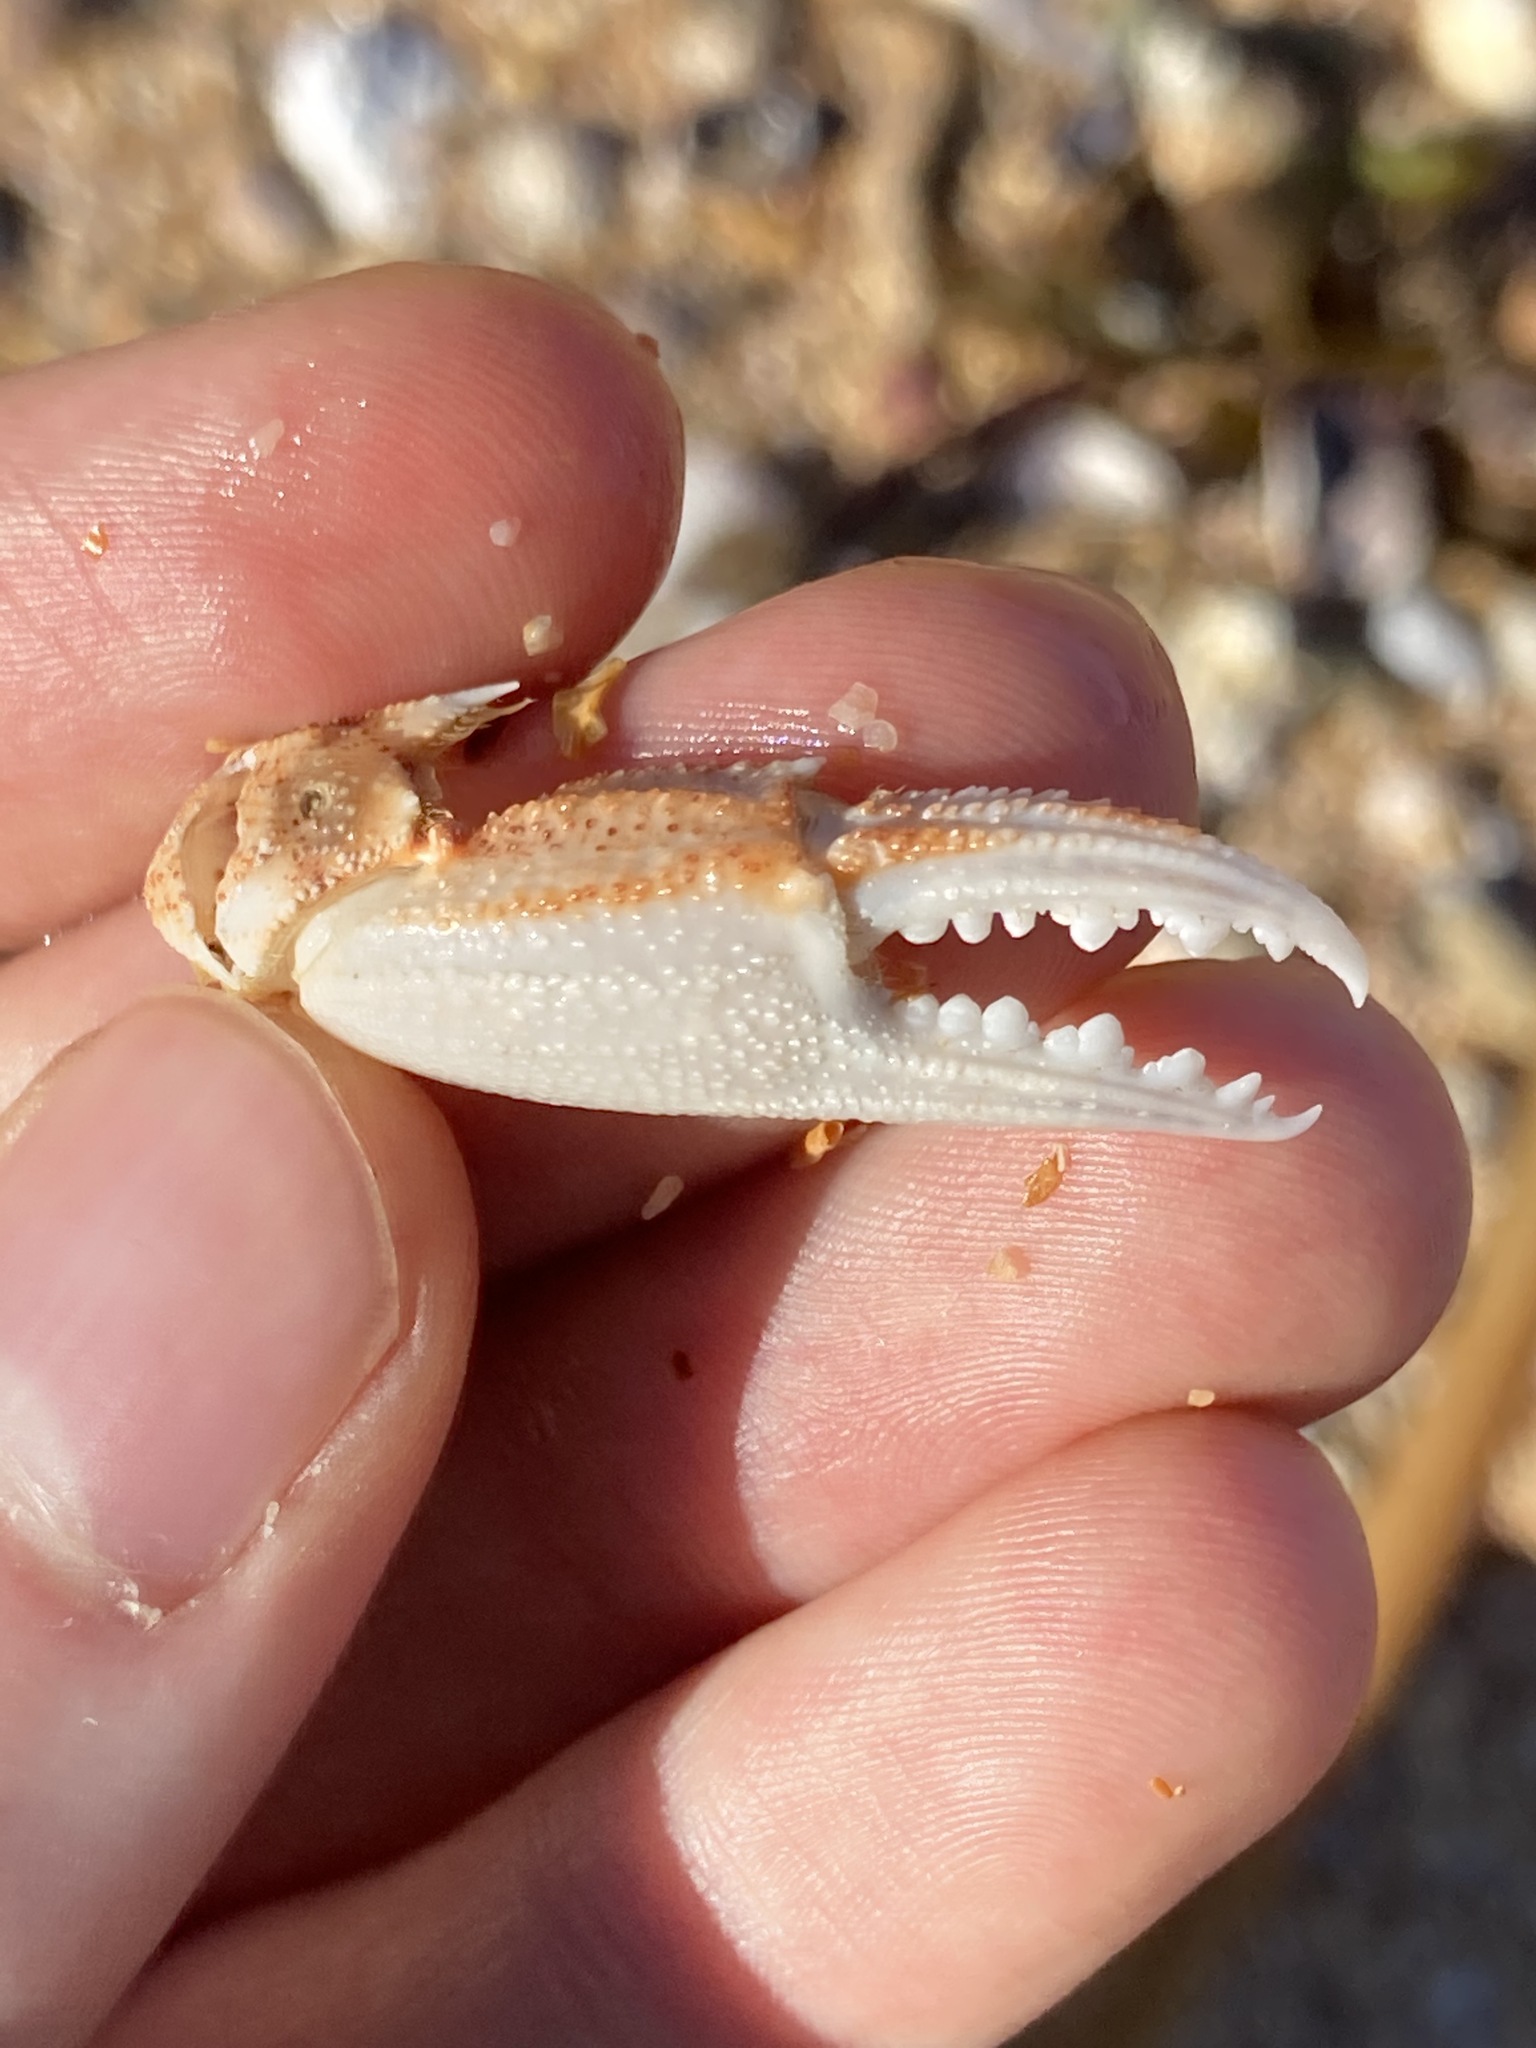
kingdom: Animalia
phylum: Arthropoda
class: Malacostraca
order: Decapoda
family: Ovalipidae
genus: Ovalipes
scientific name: Ovalipes australiensis
